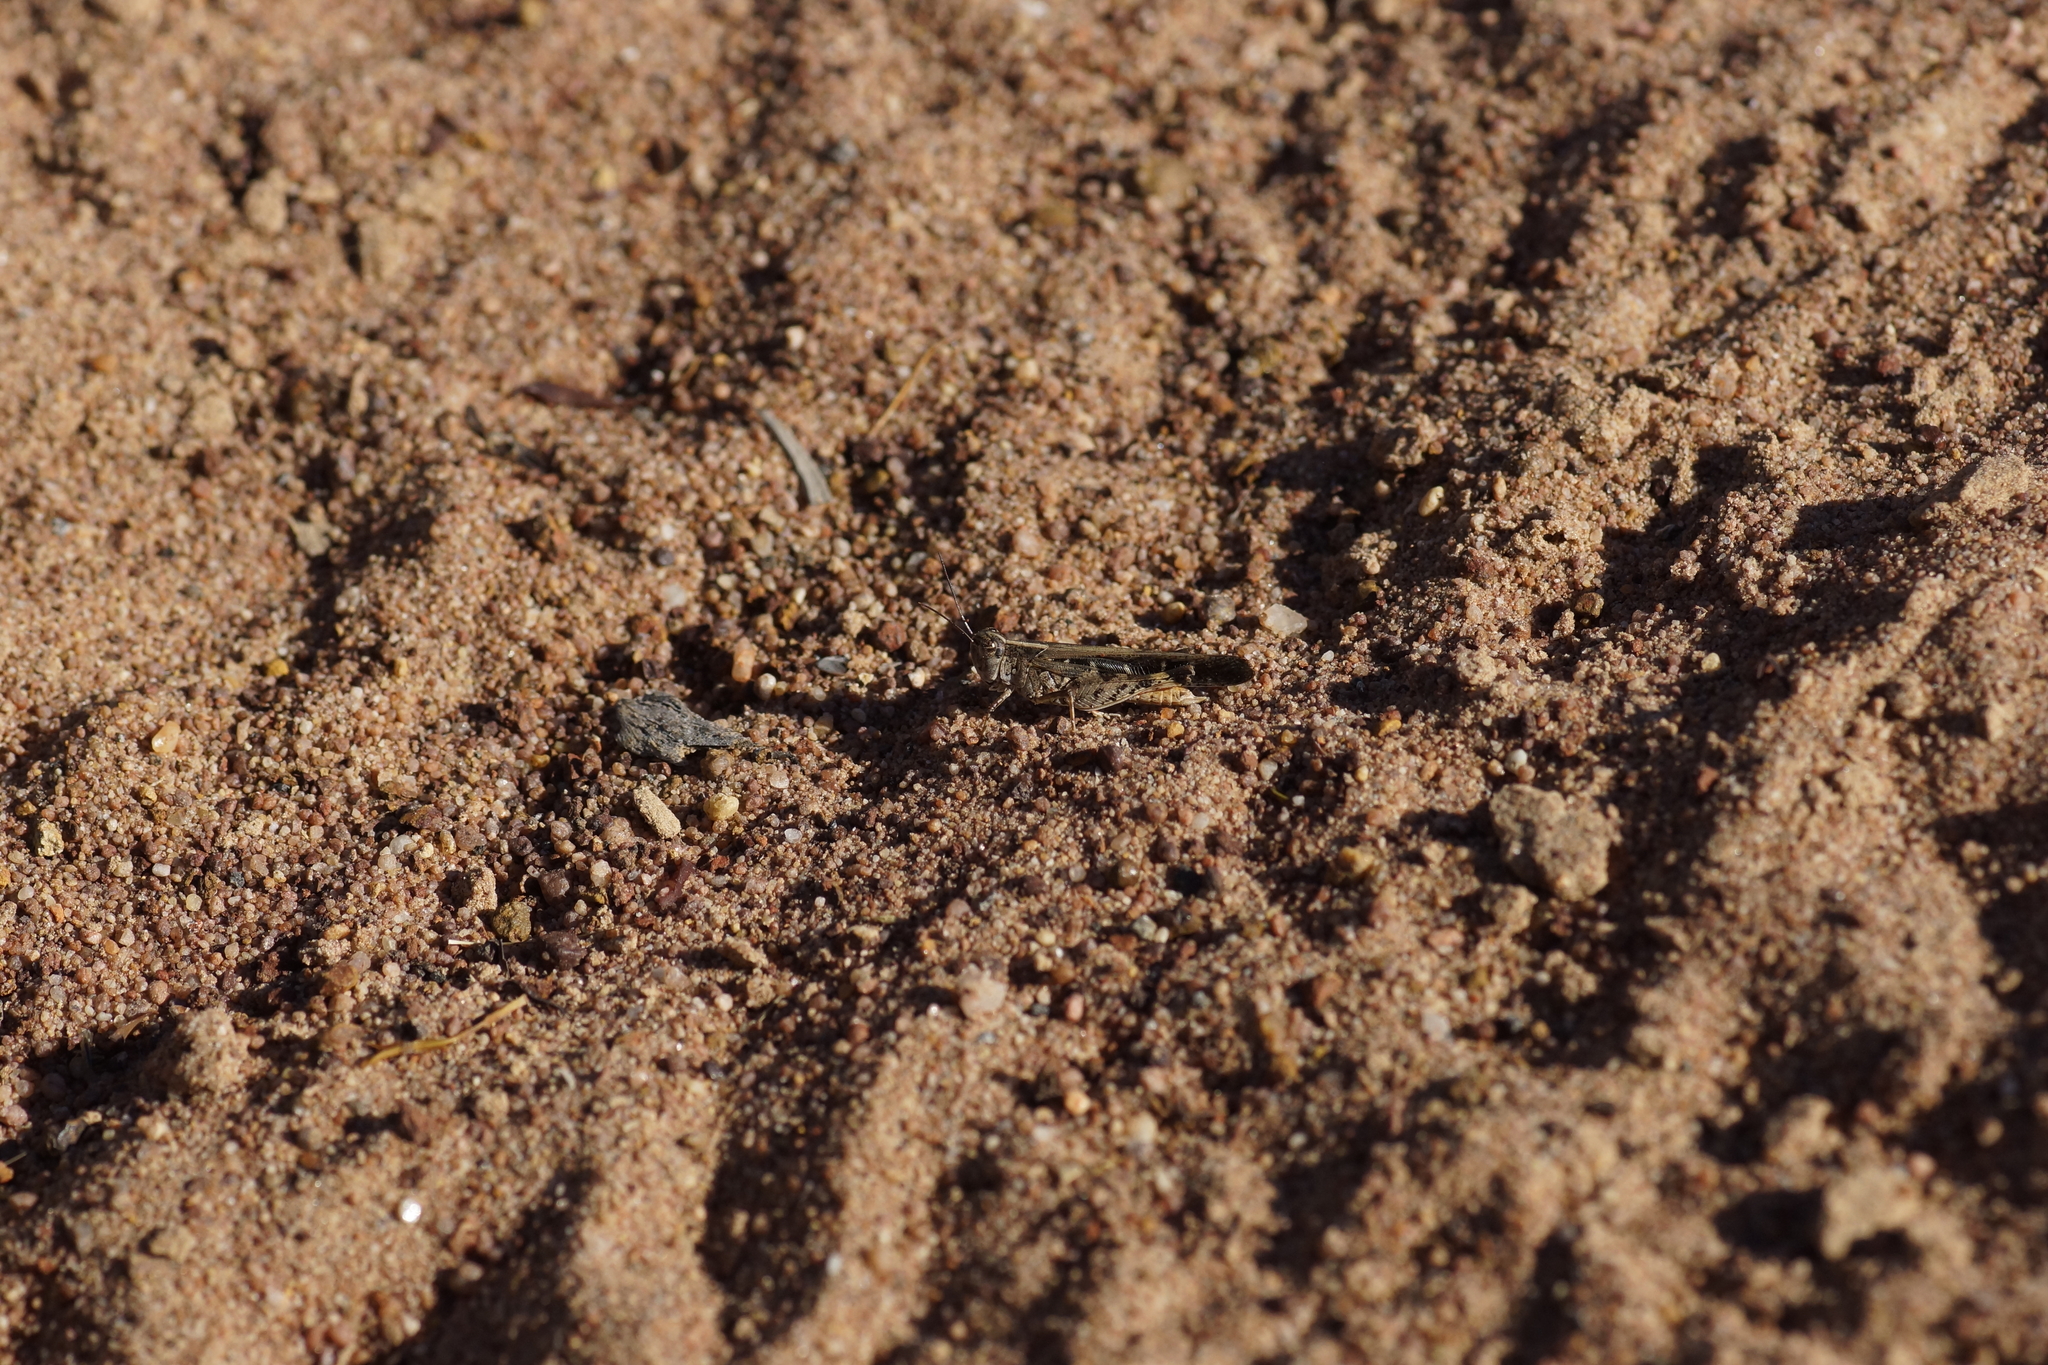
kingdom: Animalia
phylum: Arthropoda
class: Insecta
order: Orthoptera
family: Acrididae
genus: Heteropternis
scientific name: Heteropternis obscurella
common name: Long-legged bandwing
